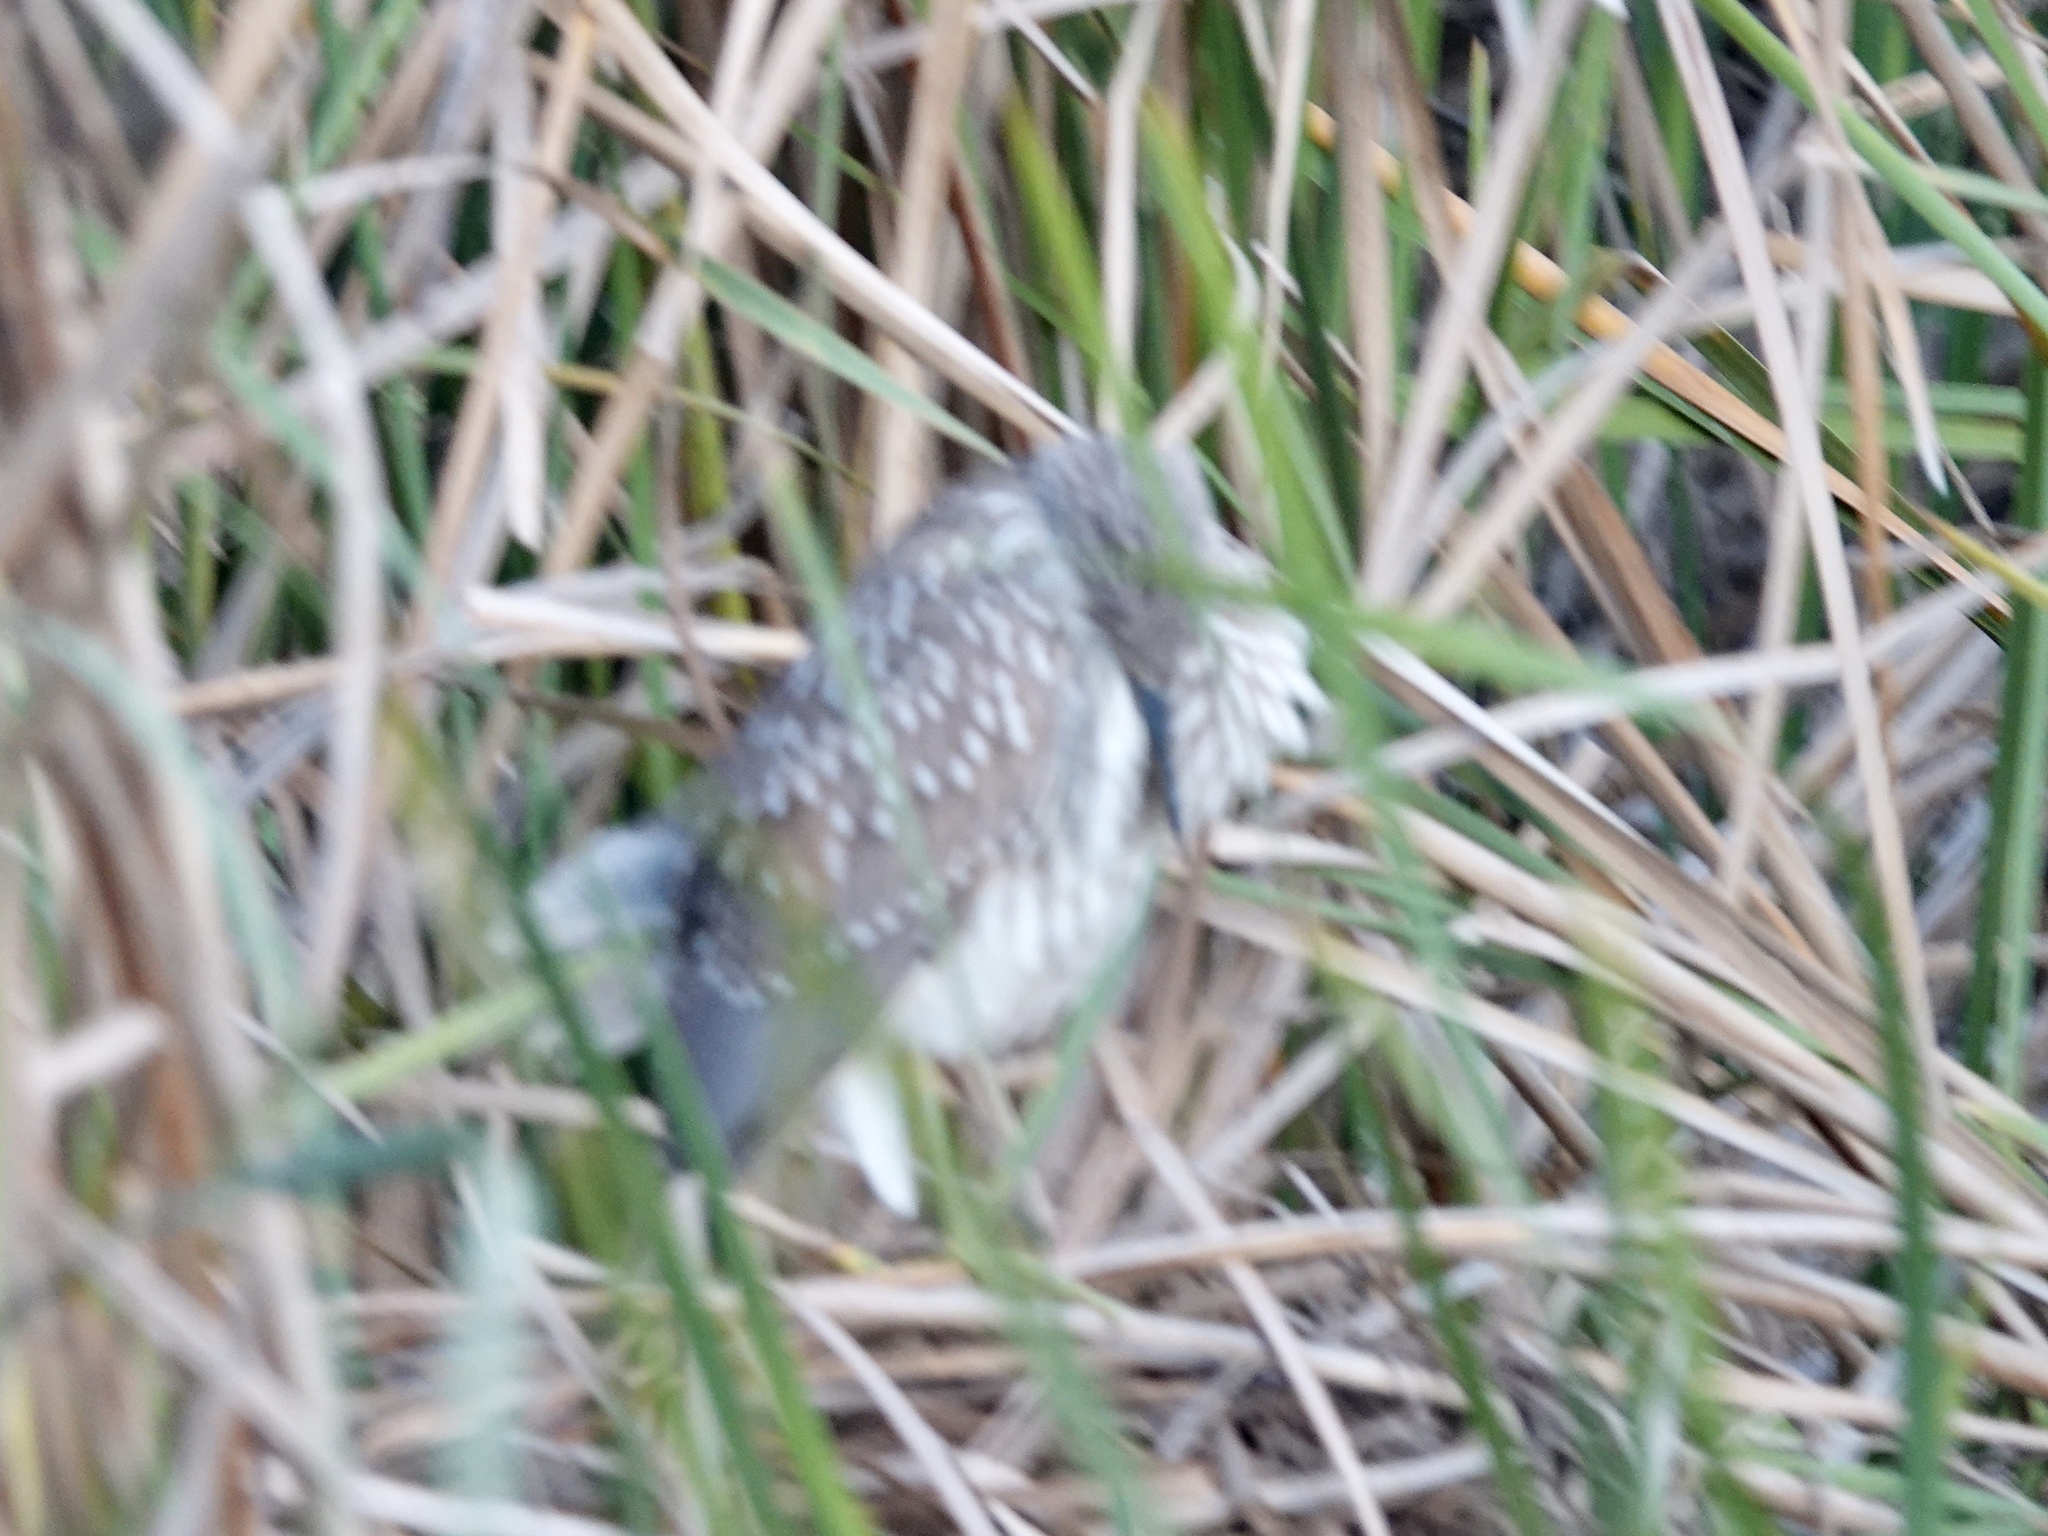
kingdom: Animalia
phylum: Chordata
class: Aves
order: Pelecaniformes
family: Ardeidae
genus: Nycticorax
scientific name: Nycticorax nycticorax
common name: Black-crowned night heron
